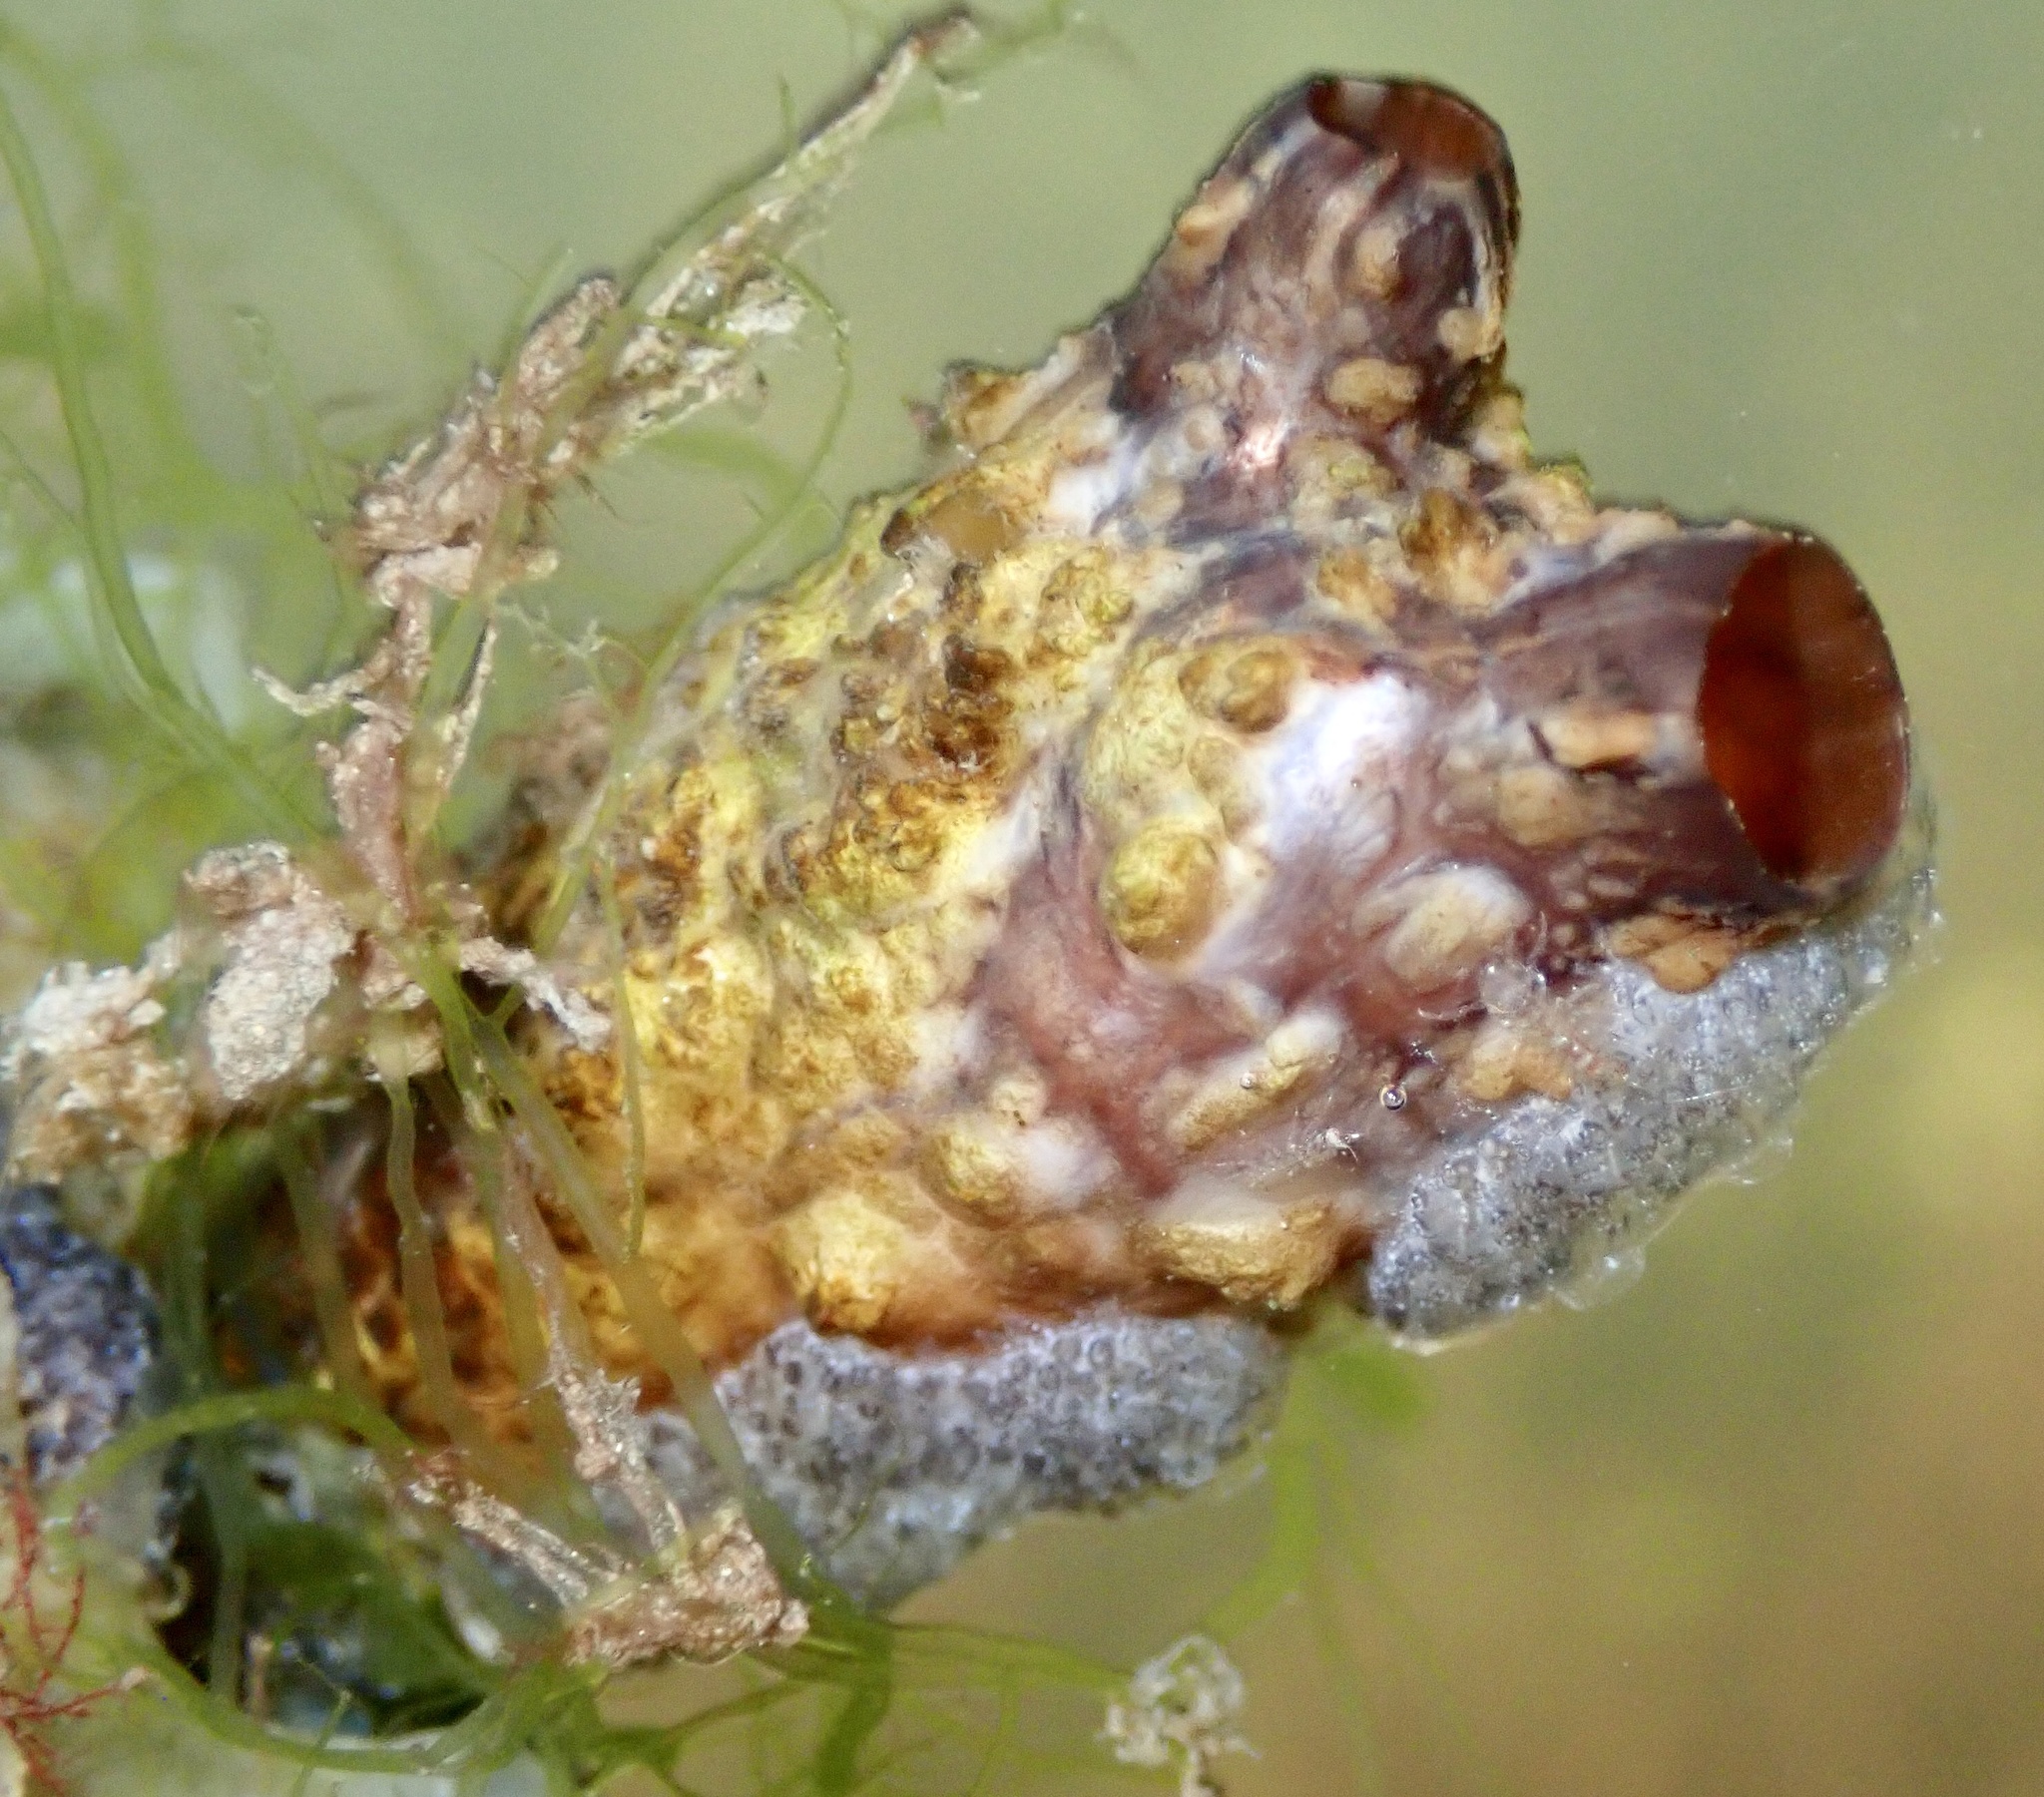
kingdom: Animalia
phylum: Chordata
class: Ascidiacea
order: Stolidobranchia
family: Styelidae
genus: Styela
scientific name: Styela clava
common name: Leathery sea squirt
